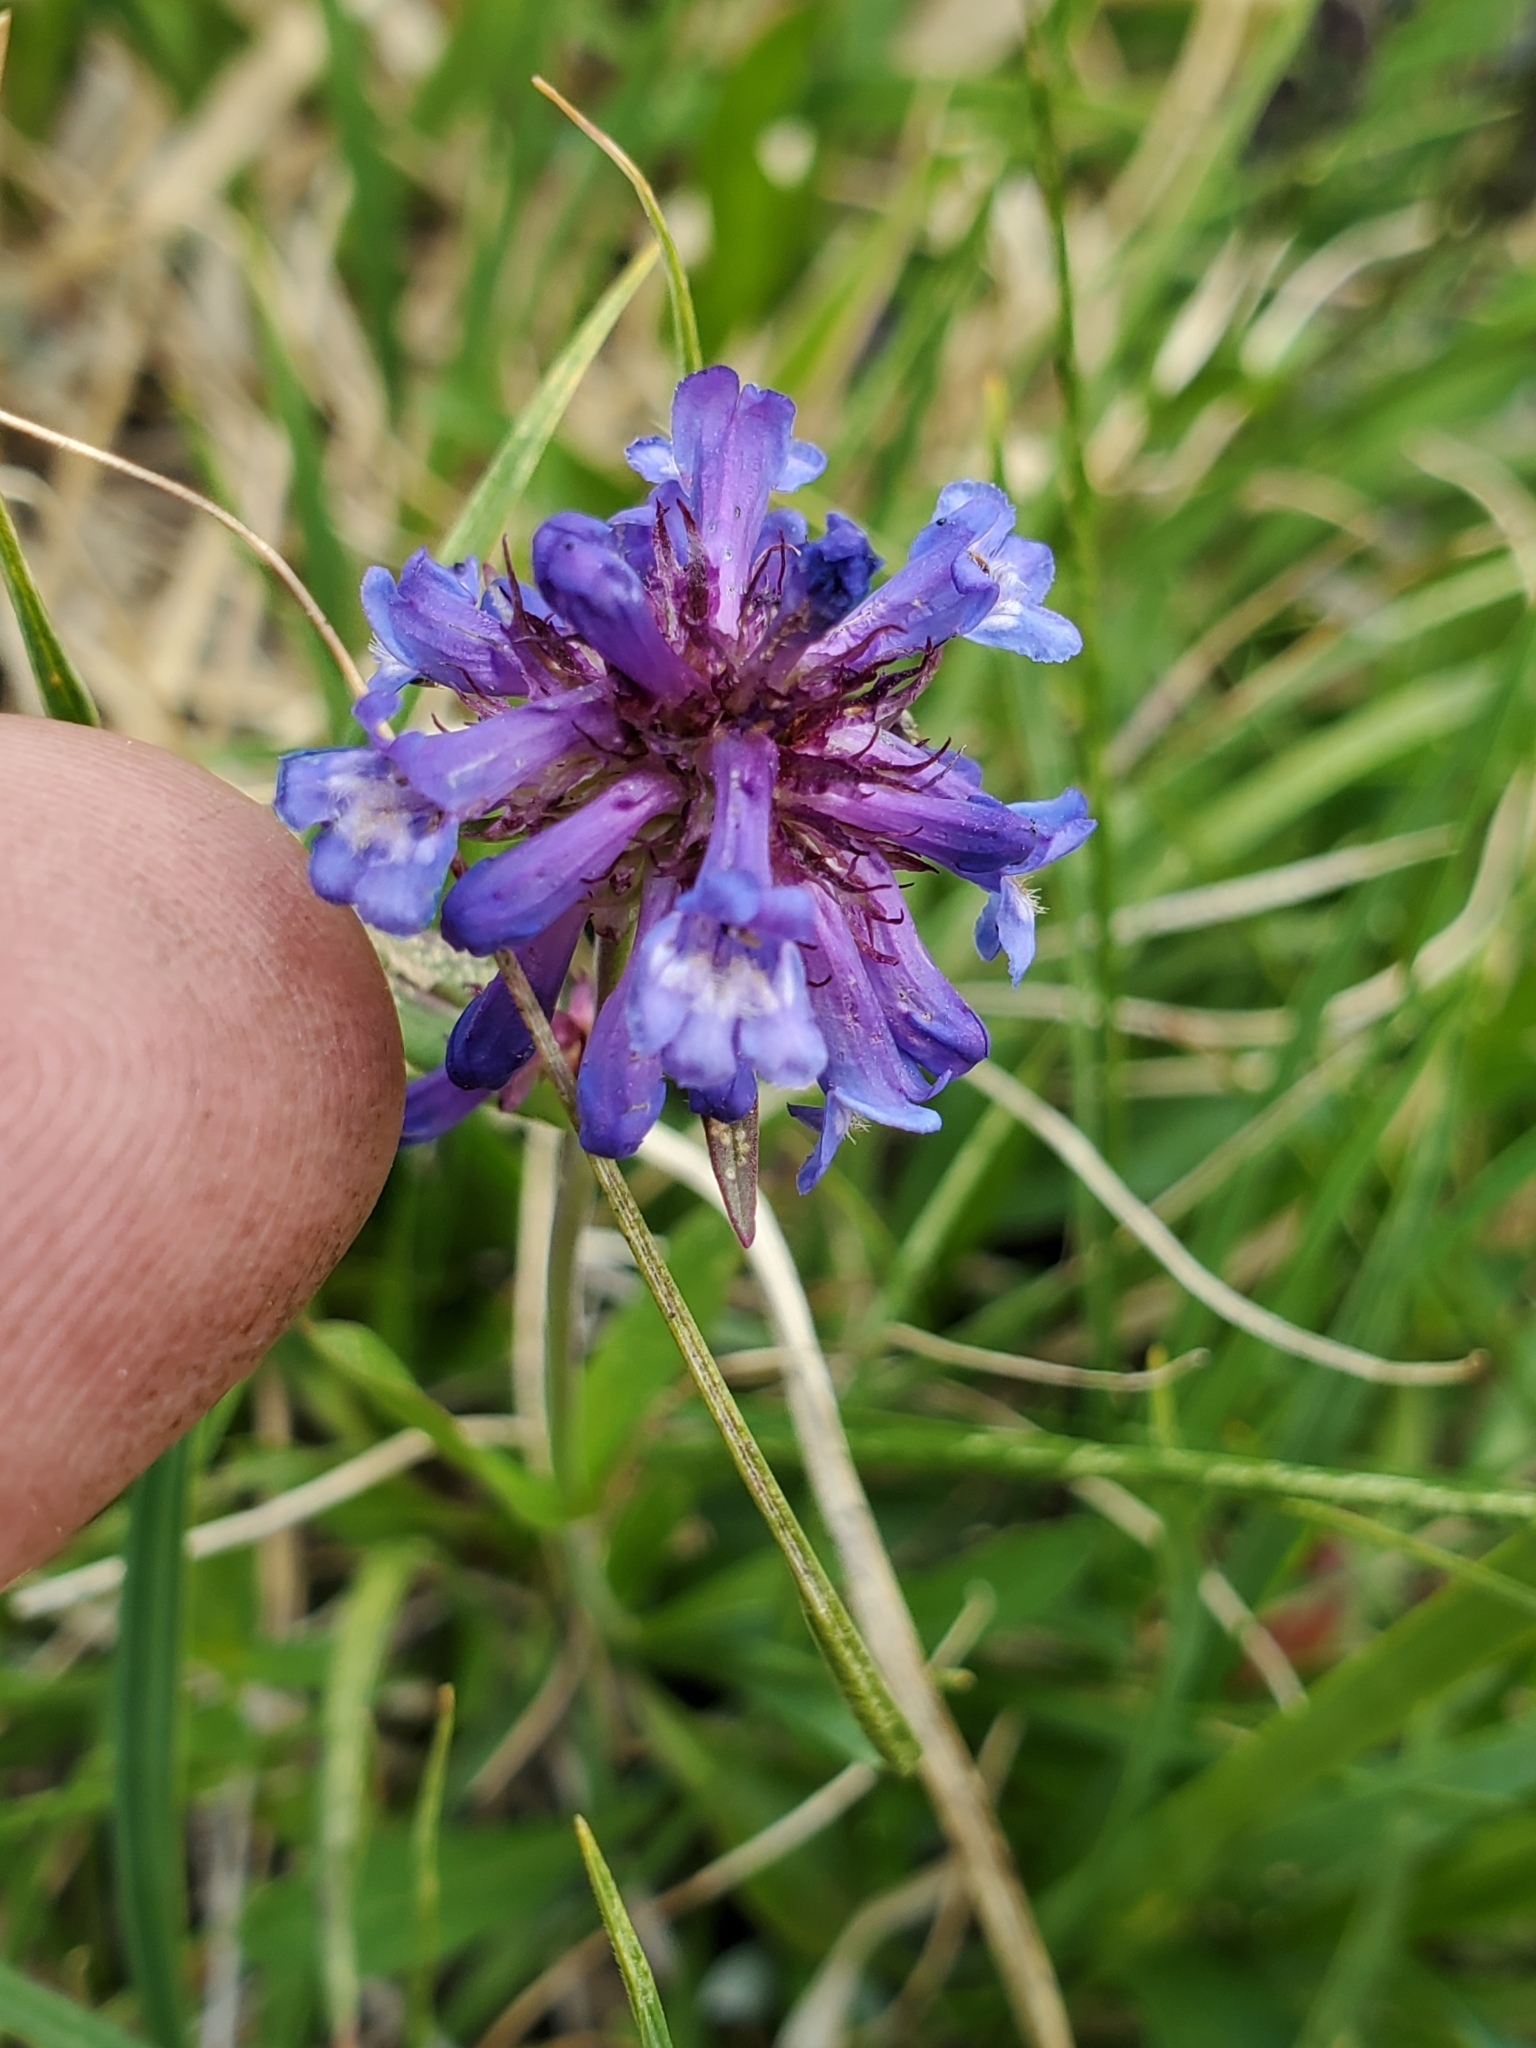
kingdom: Plantae
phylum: Tracheophyta
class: Magnoliopsida
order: Lamiales
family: Plantaginaceae
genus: Penstemon
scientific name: Penstemon procerus
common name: Small-flower penstemon
